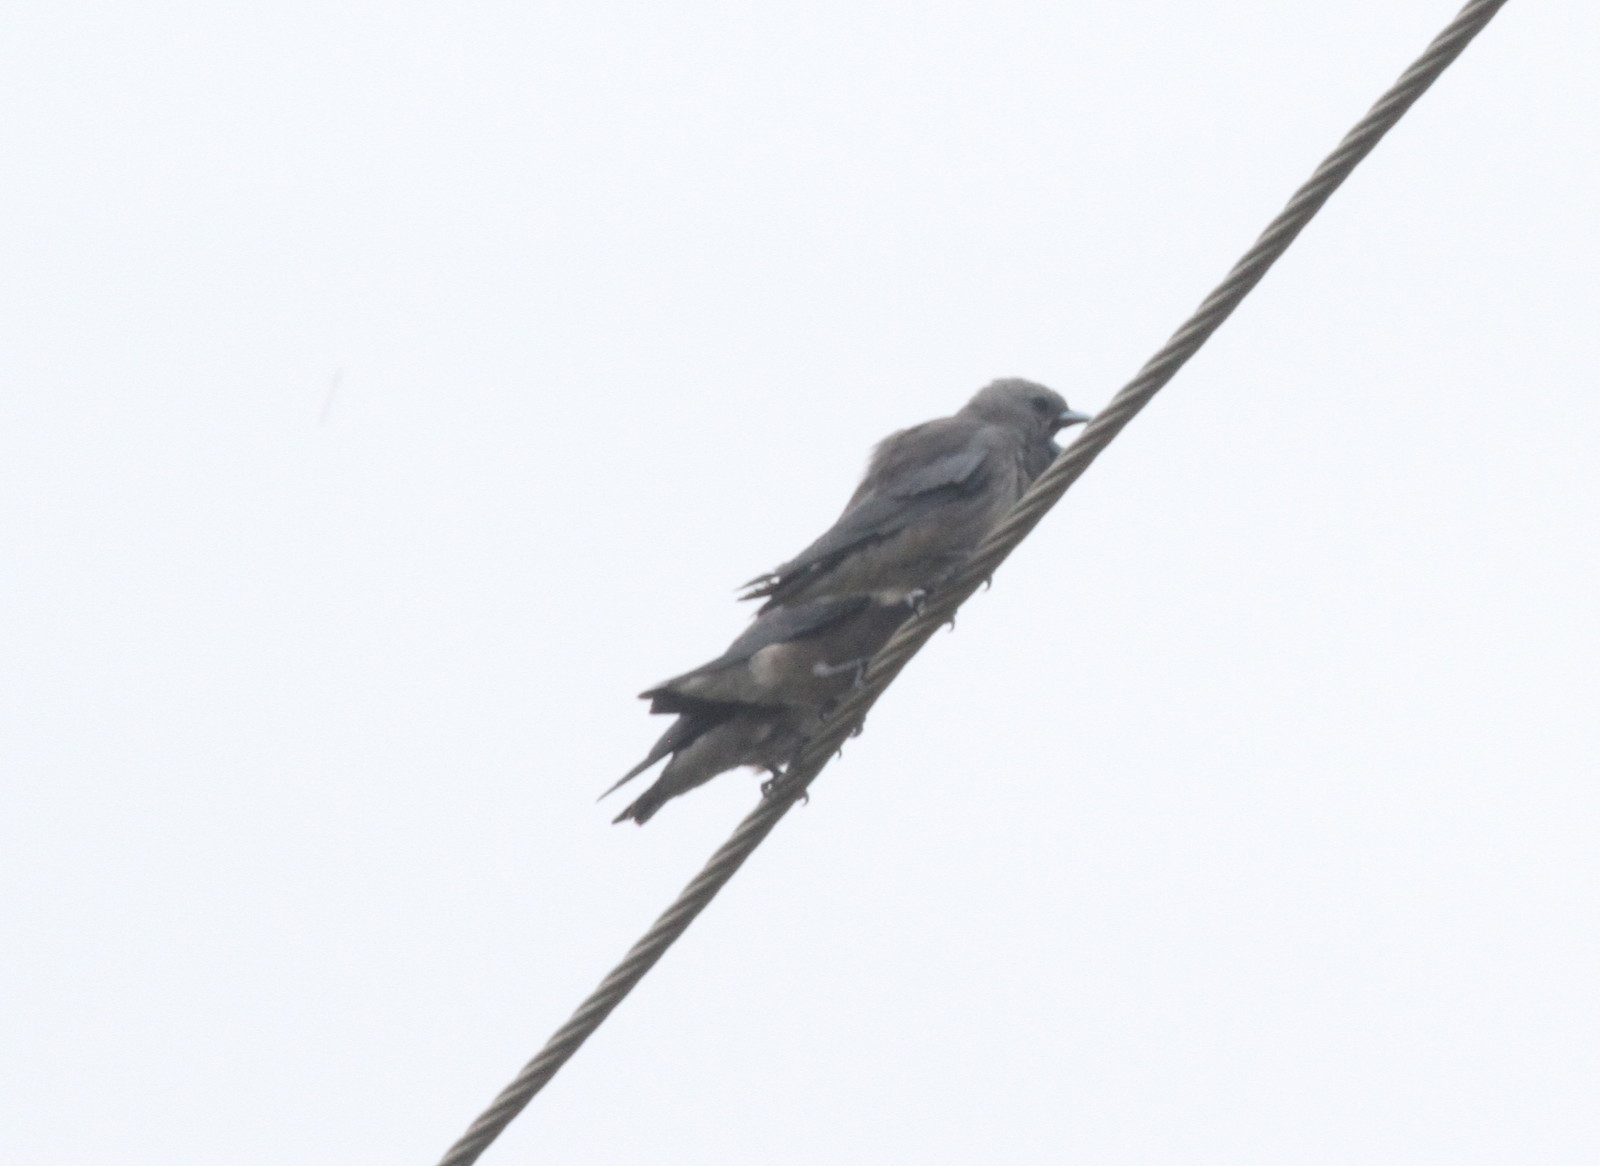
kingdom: Animalia
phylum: Chordata
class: Aves
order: Passeriformes
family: Artamidae
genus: Artamus
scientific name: Artamus fuscus
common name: Ashy woodswallow
